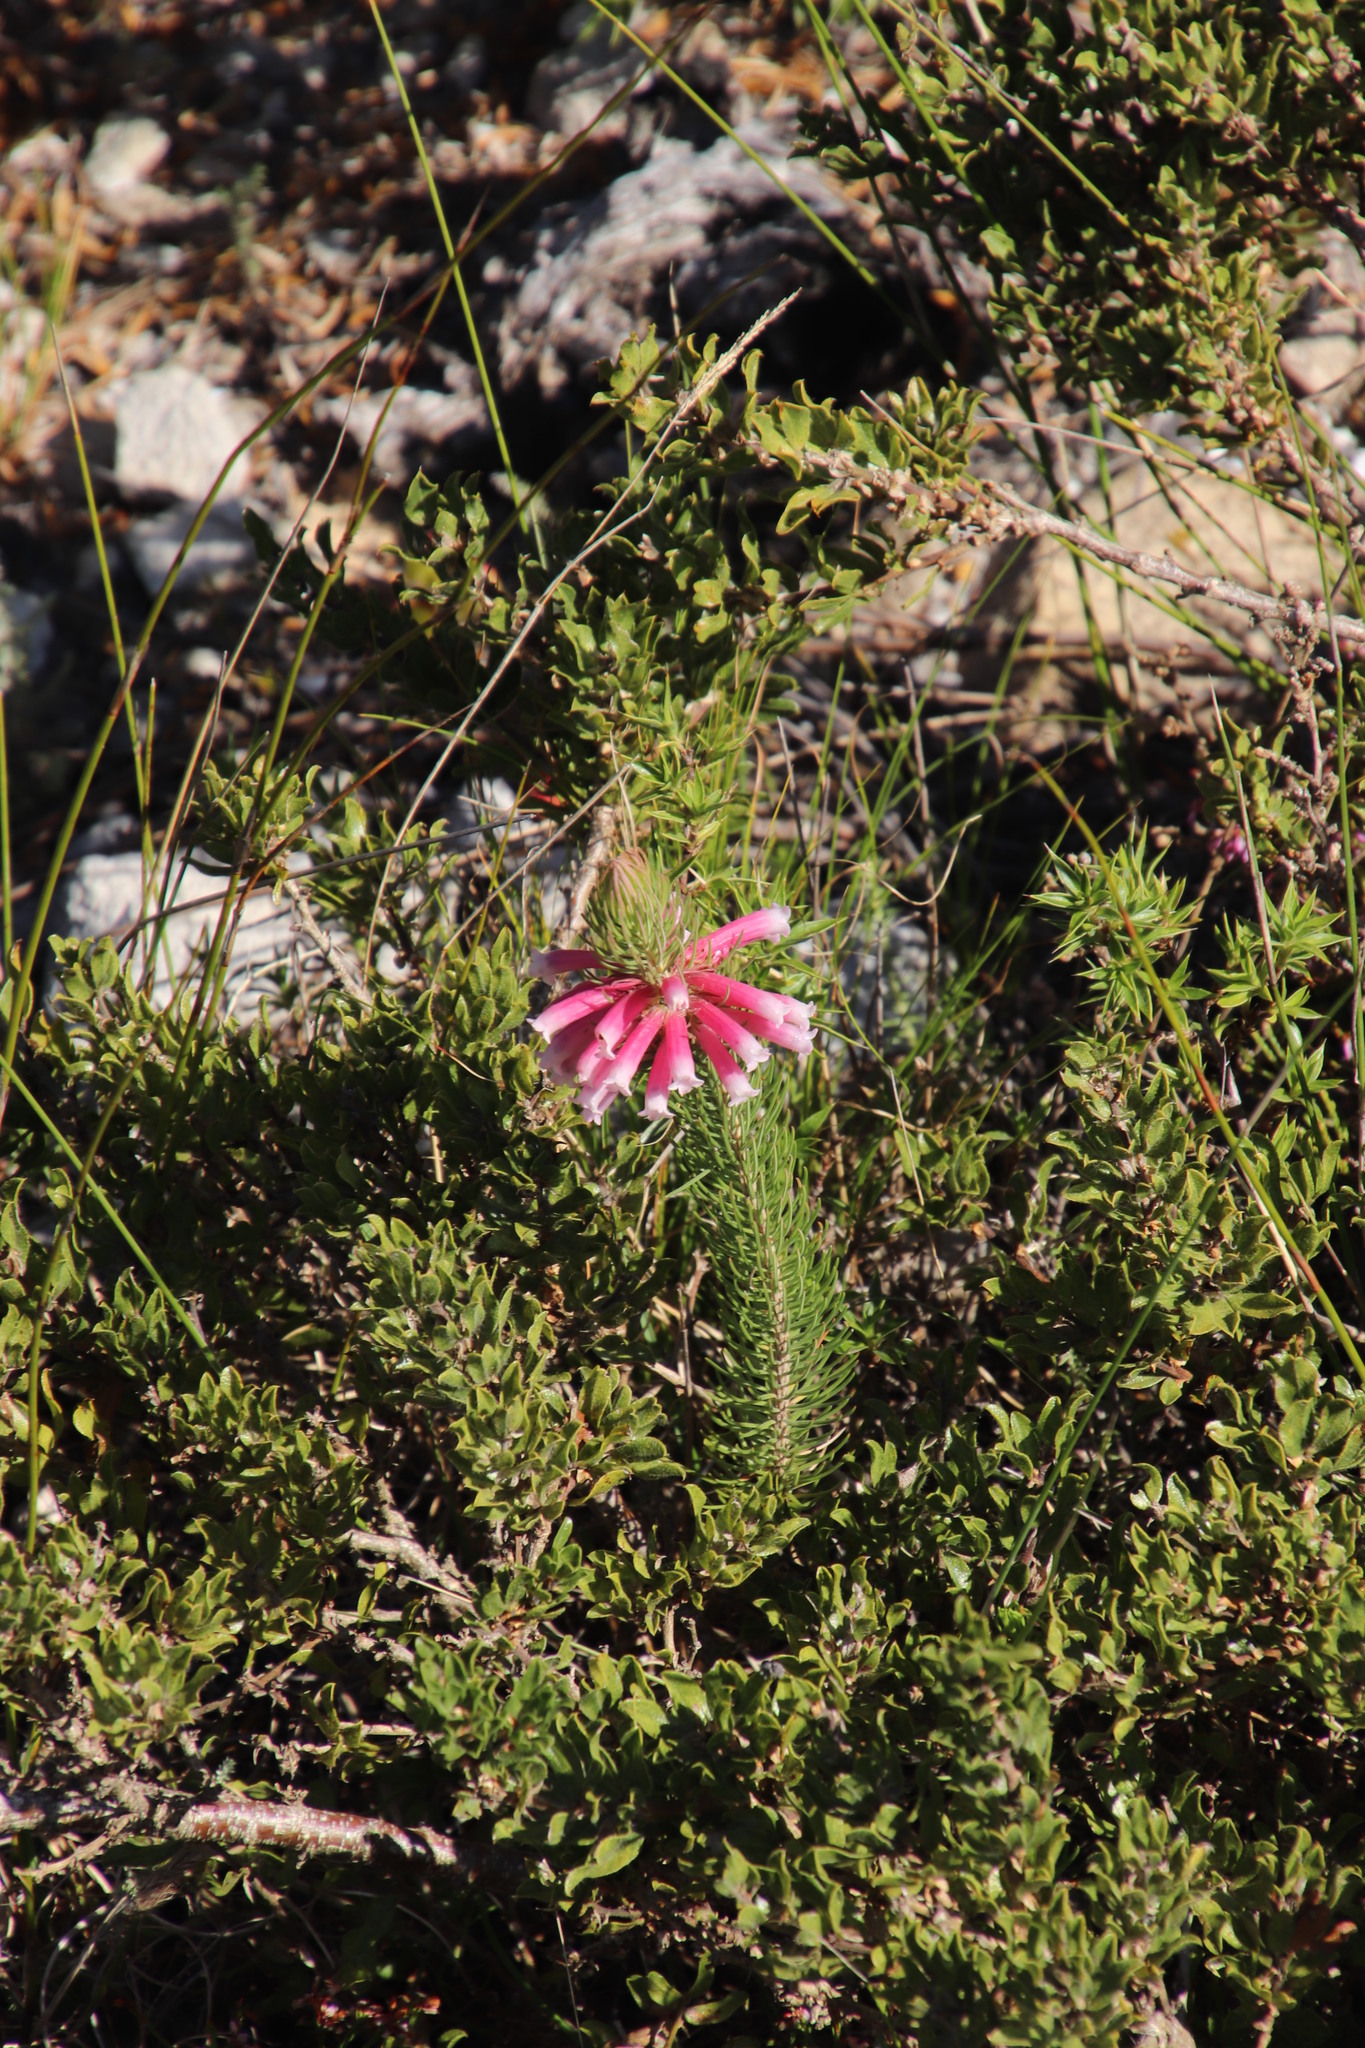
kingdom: Plantae
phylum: Tracheophyta
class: Magnoliopsida
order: Ericales
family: Ericaceae
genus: Erica
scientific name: Erica viscaria
